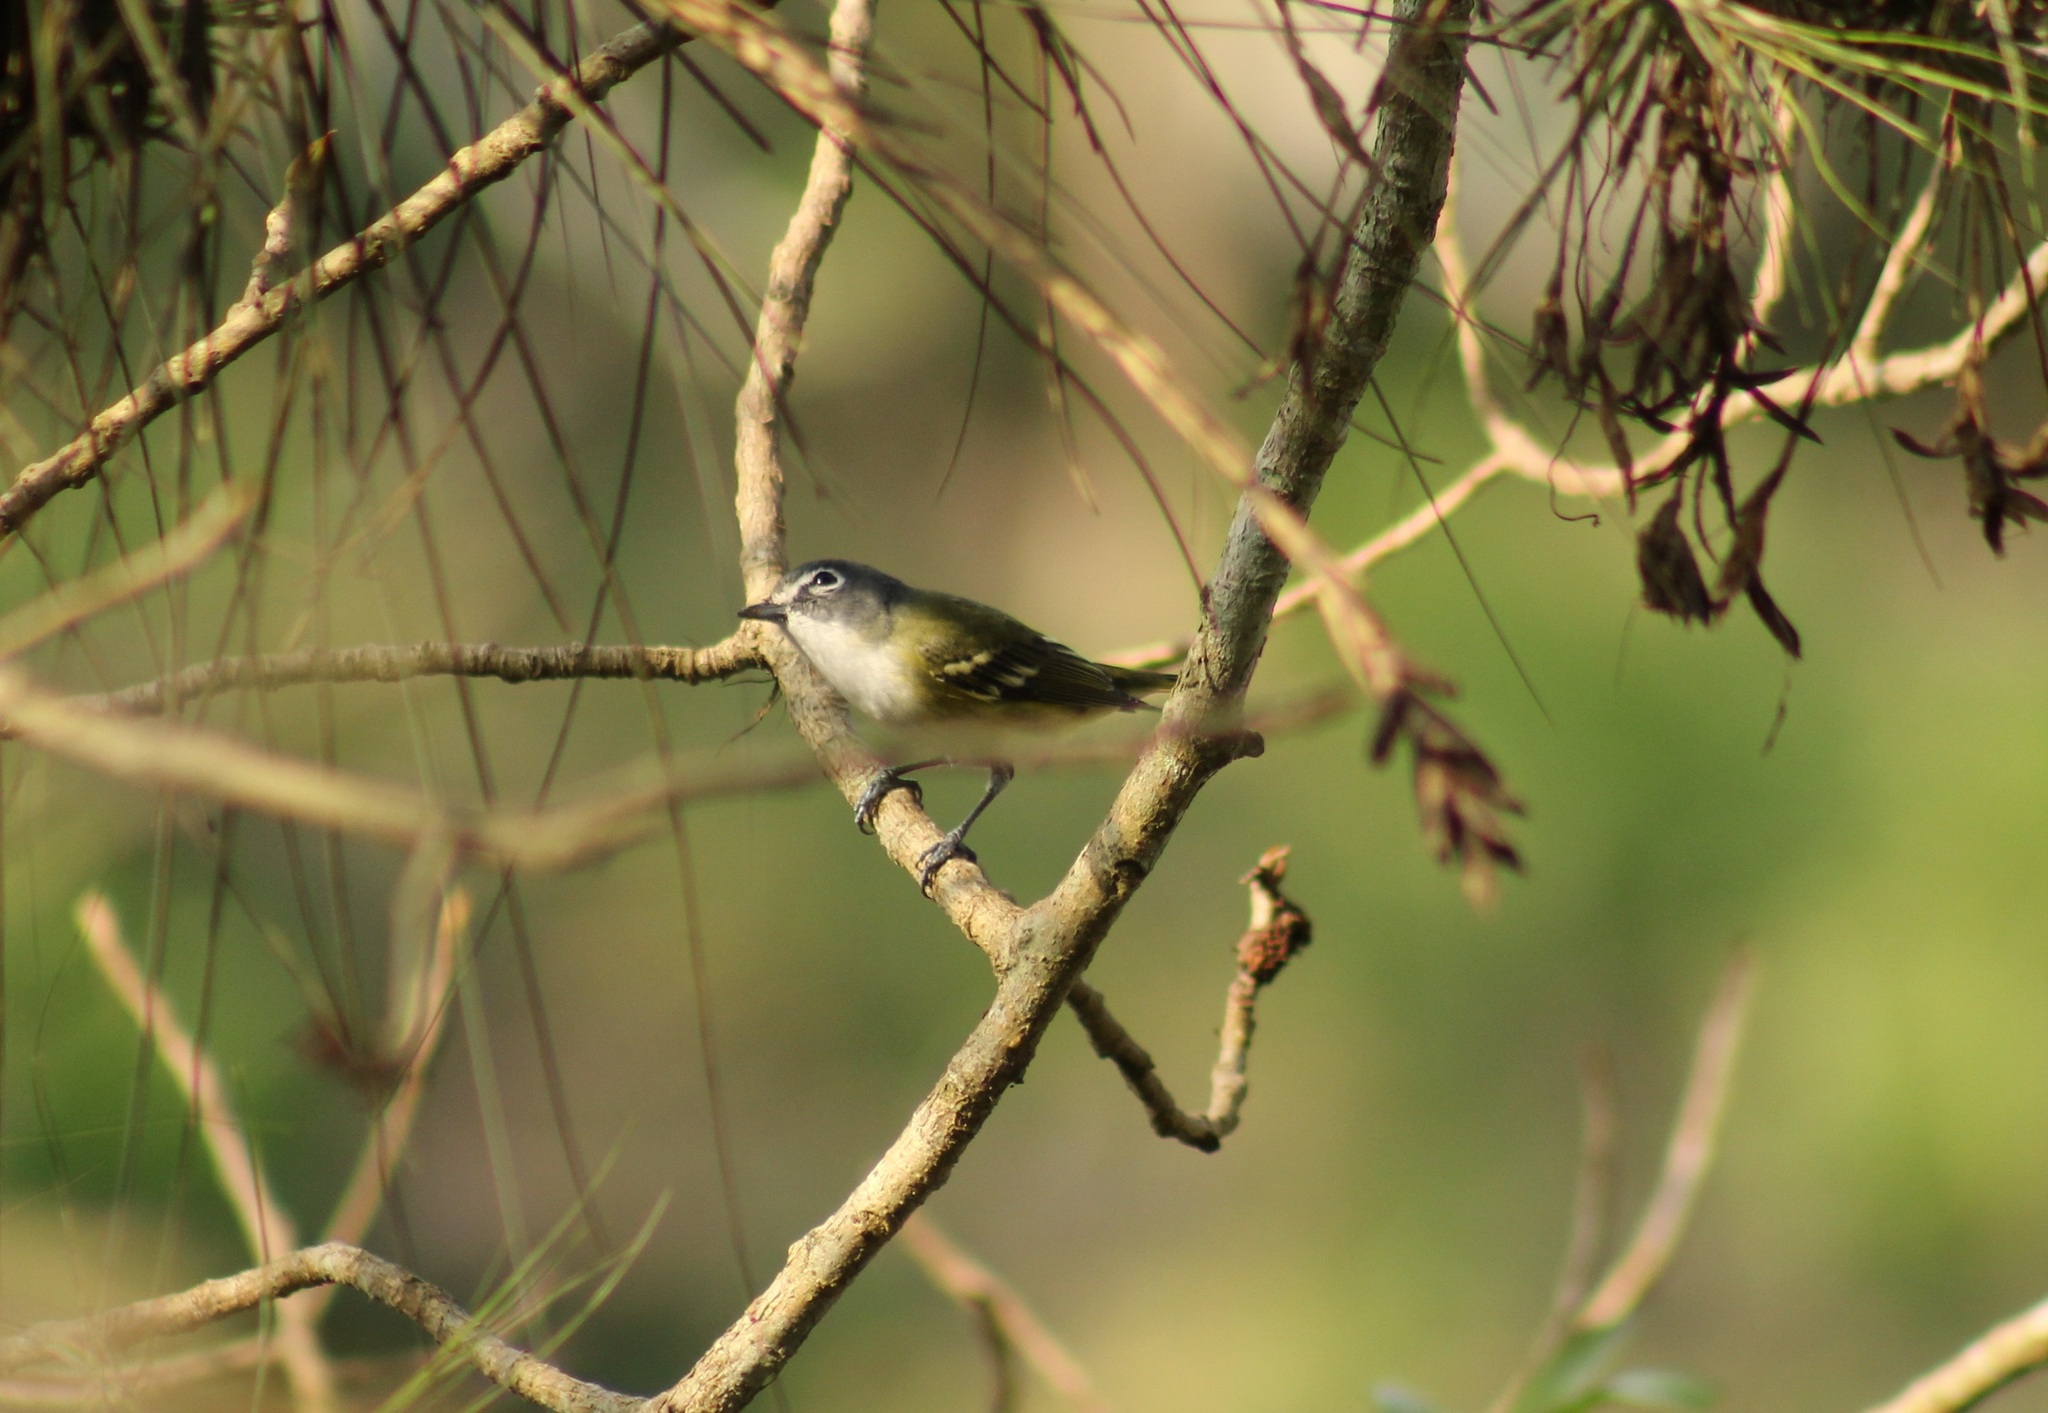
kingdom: Animalia
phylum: Chordata
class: Aves
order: Passeriformes
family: Vireonidae
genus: Vireo
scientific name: Vireo solitarius
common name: Blue-headed vireo
